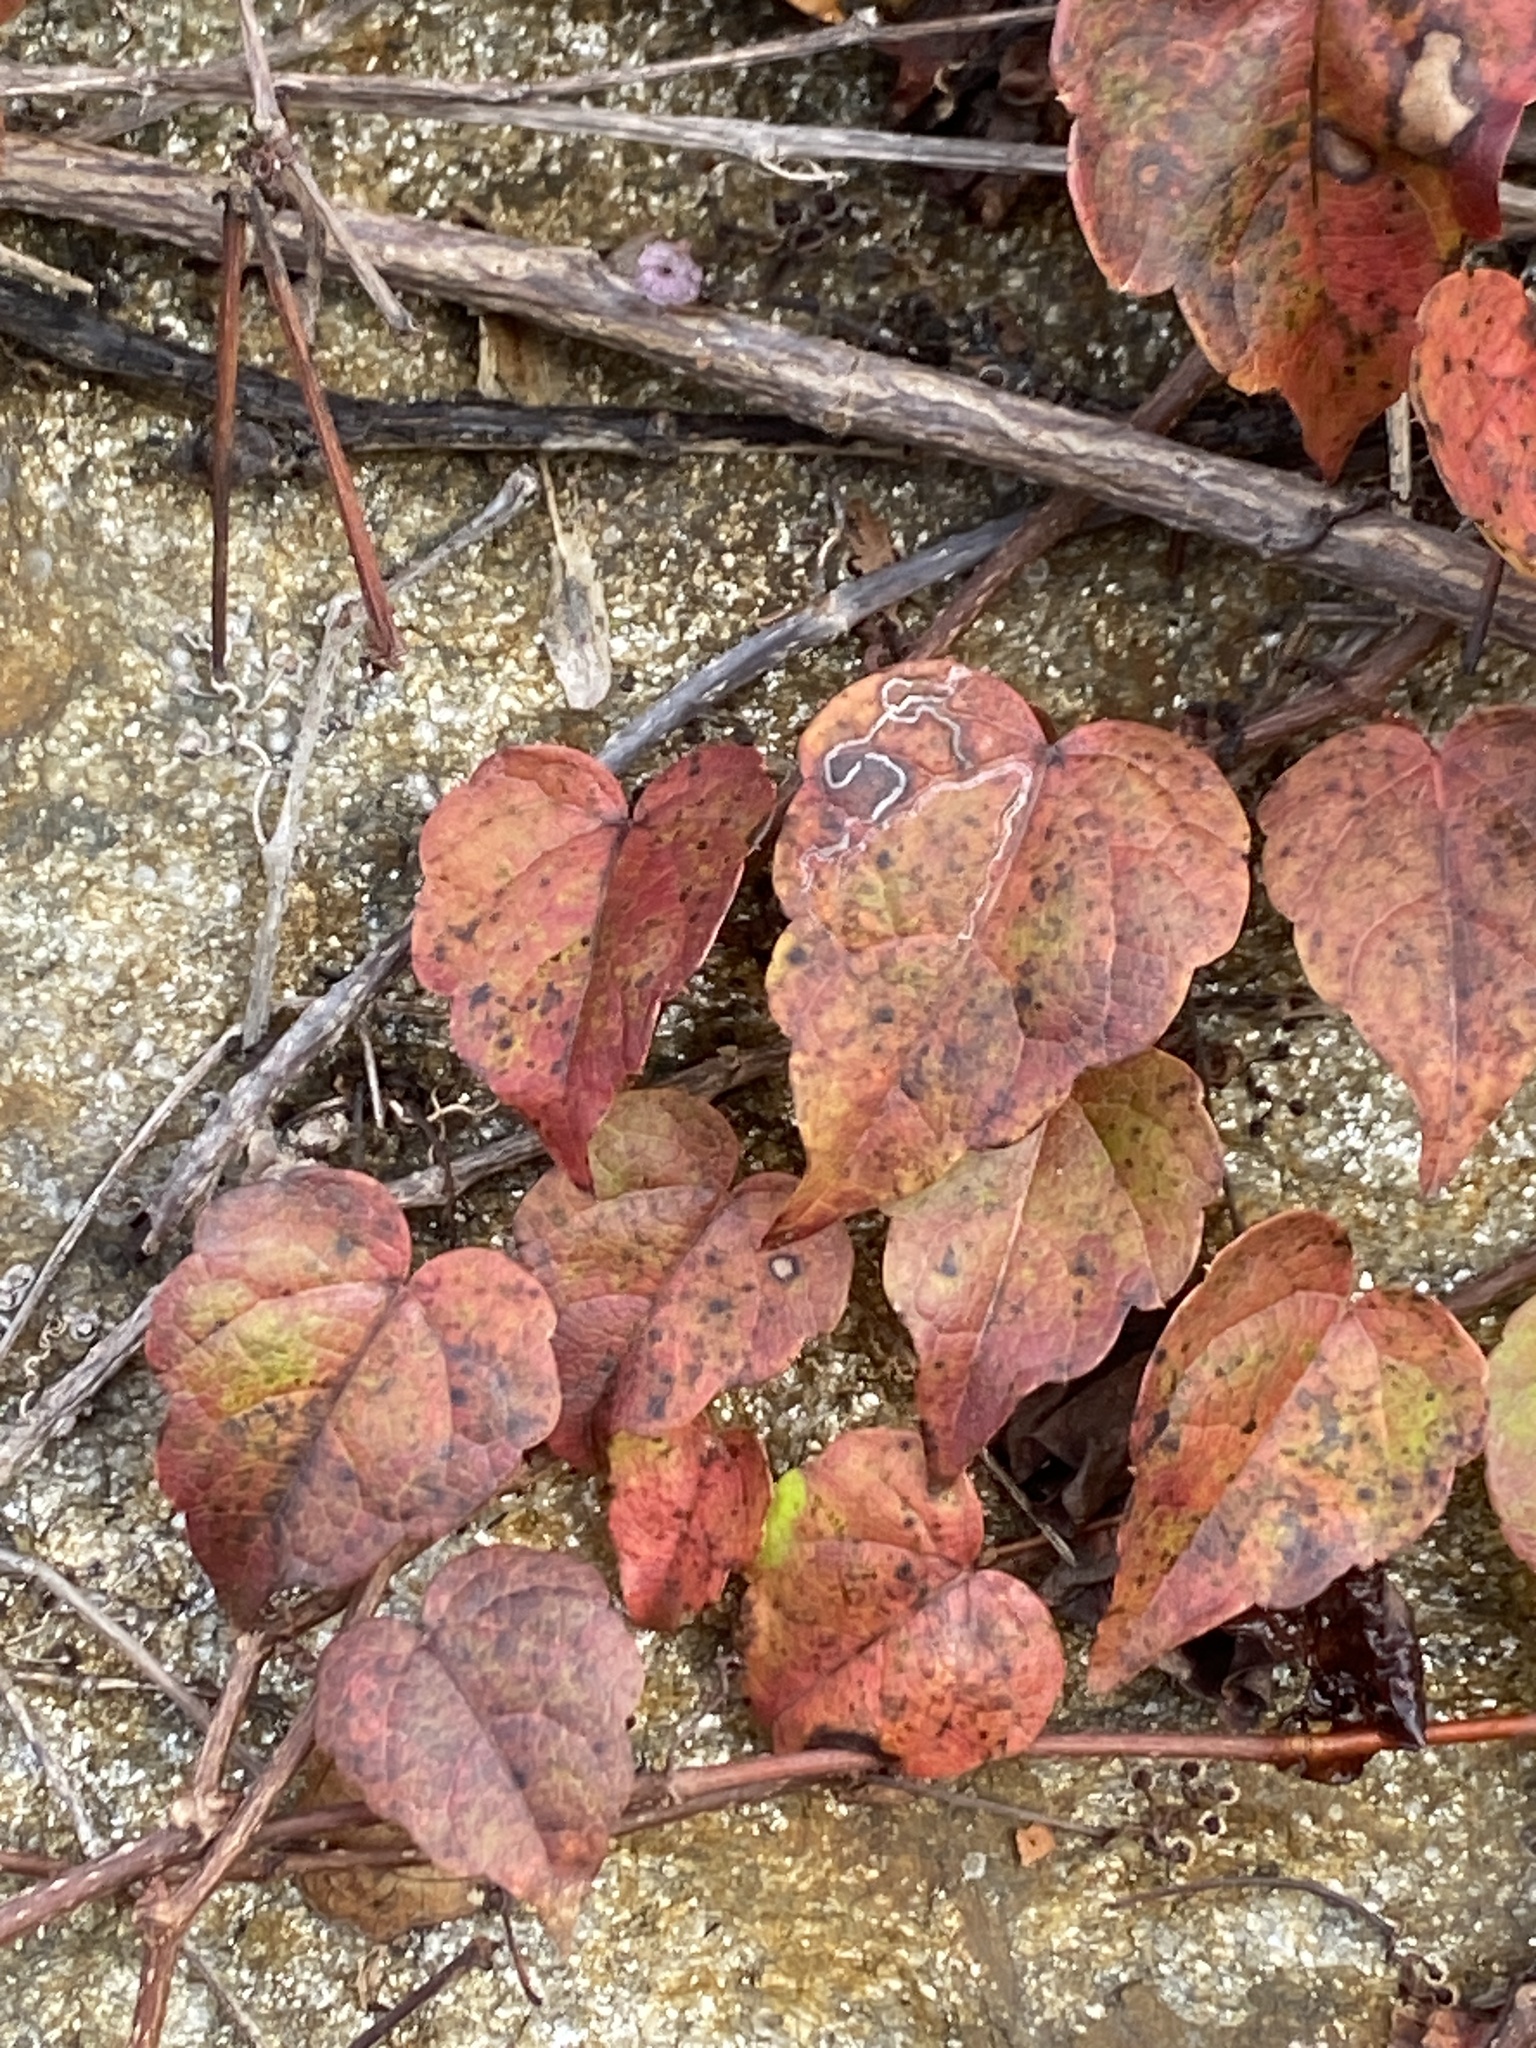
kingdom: Plantae
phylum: Tracheophyta
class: Magnoliopsida
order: Vitales
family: Vitaceae
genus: Parthenocissus
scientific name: Parthenocissus tricuspidata
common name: Boston ivy
